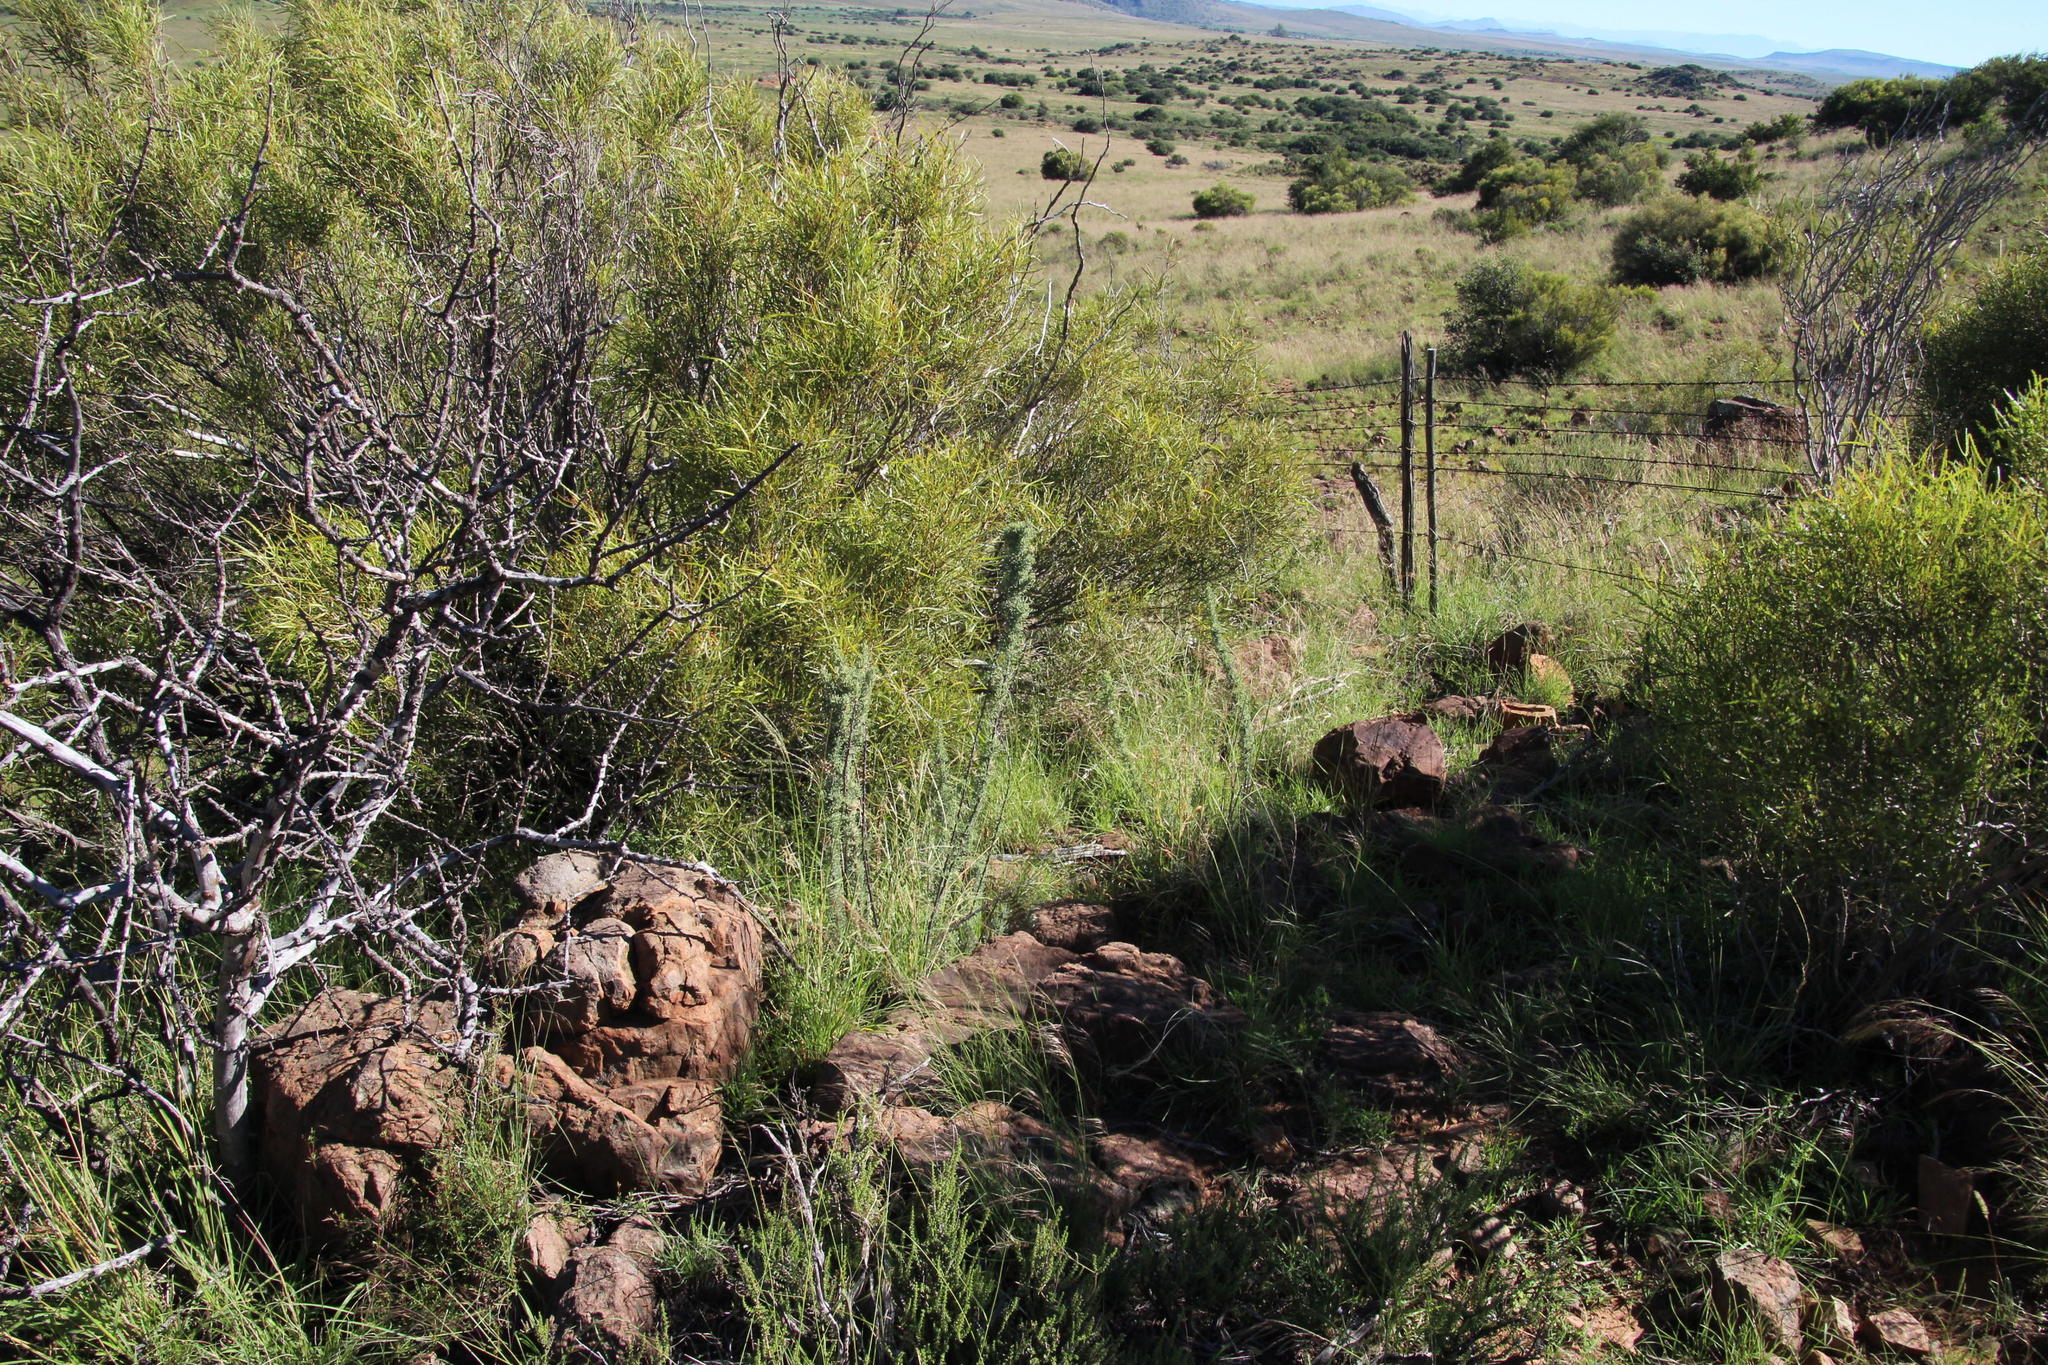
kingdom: Plantae
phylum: Tracheophyta
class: Magnoliopsida
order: Sapindales
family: Anacardiaceae
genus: Searsia
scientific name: Searsia erosa
